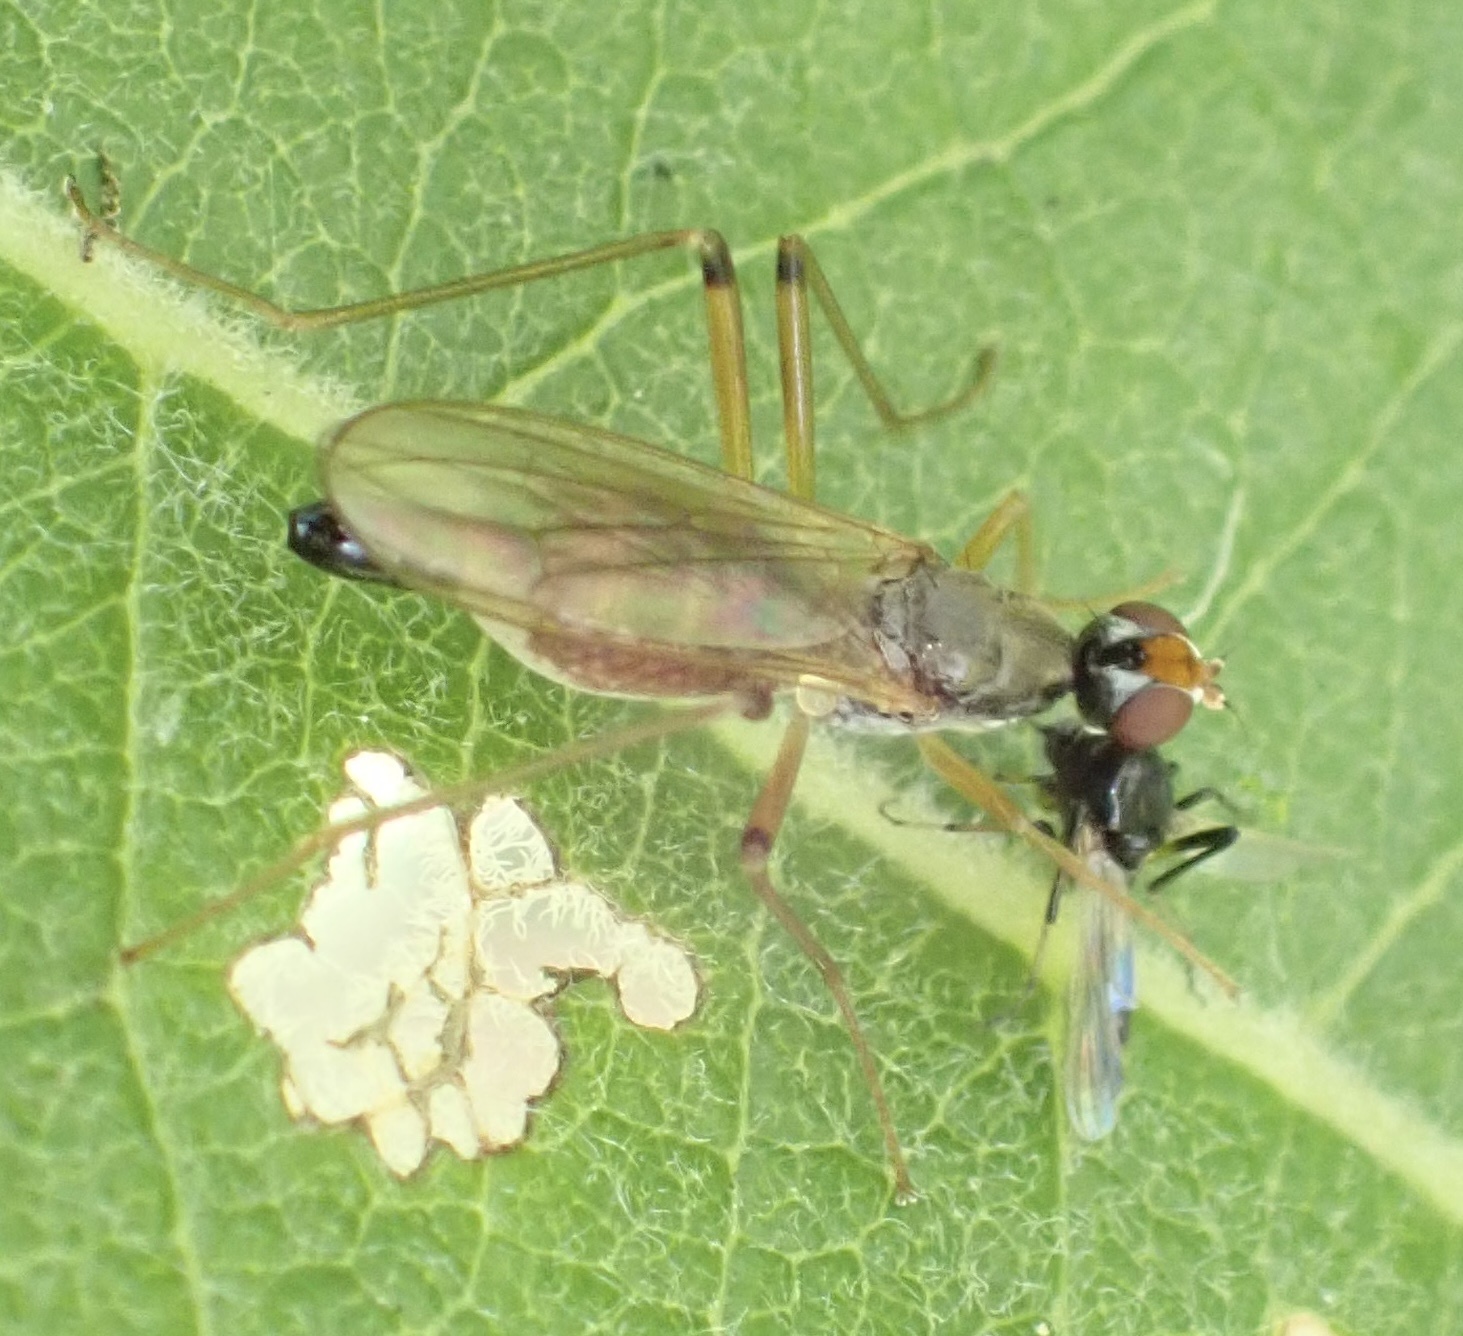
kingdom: Animalia
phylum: Arthropoda
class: Insecta
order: Diptera
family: Micropezidae
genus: Compsobata
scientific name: Compsobata cibaria
